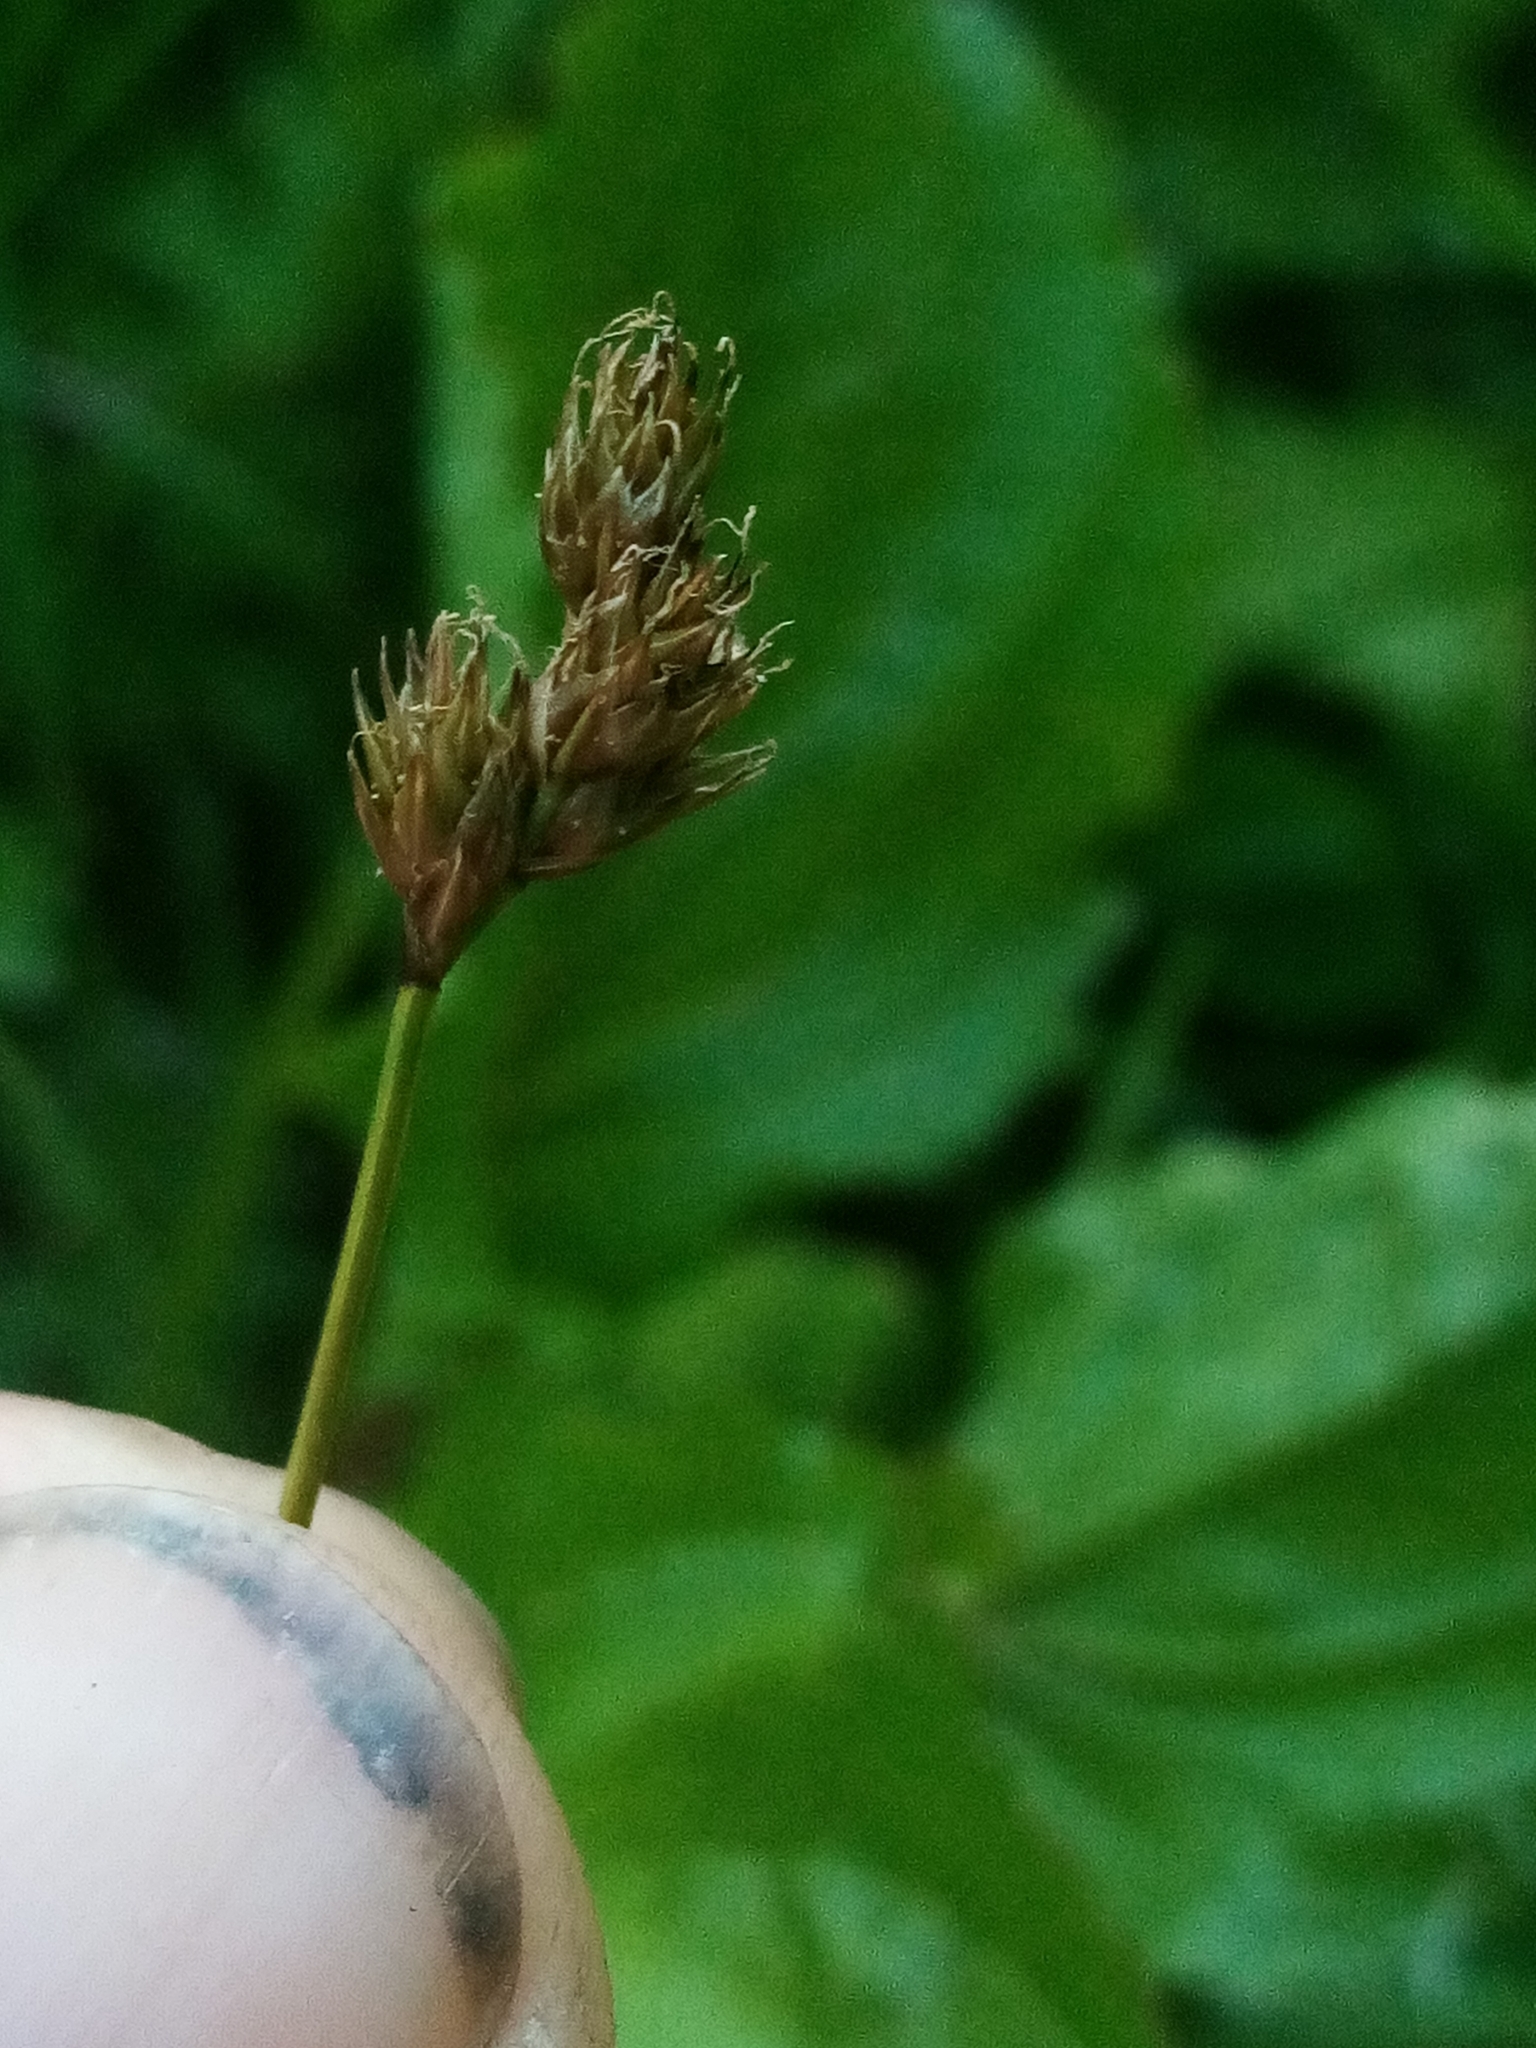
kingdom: Plantae
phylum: Tracheophyta
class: Liliopsida
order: Poales
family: Cyperaceae
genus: Carex
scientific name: Carex leporina
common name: Oval sedge
